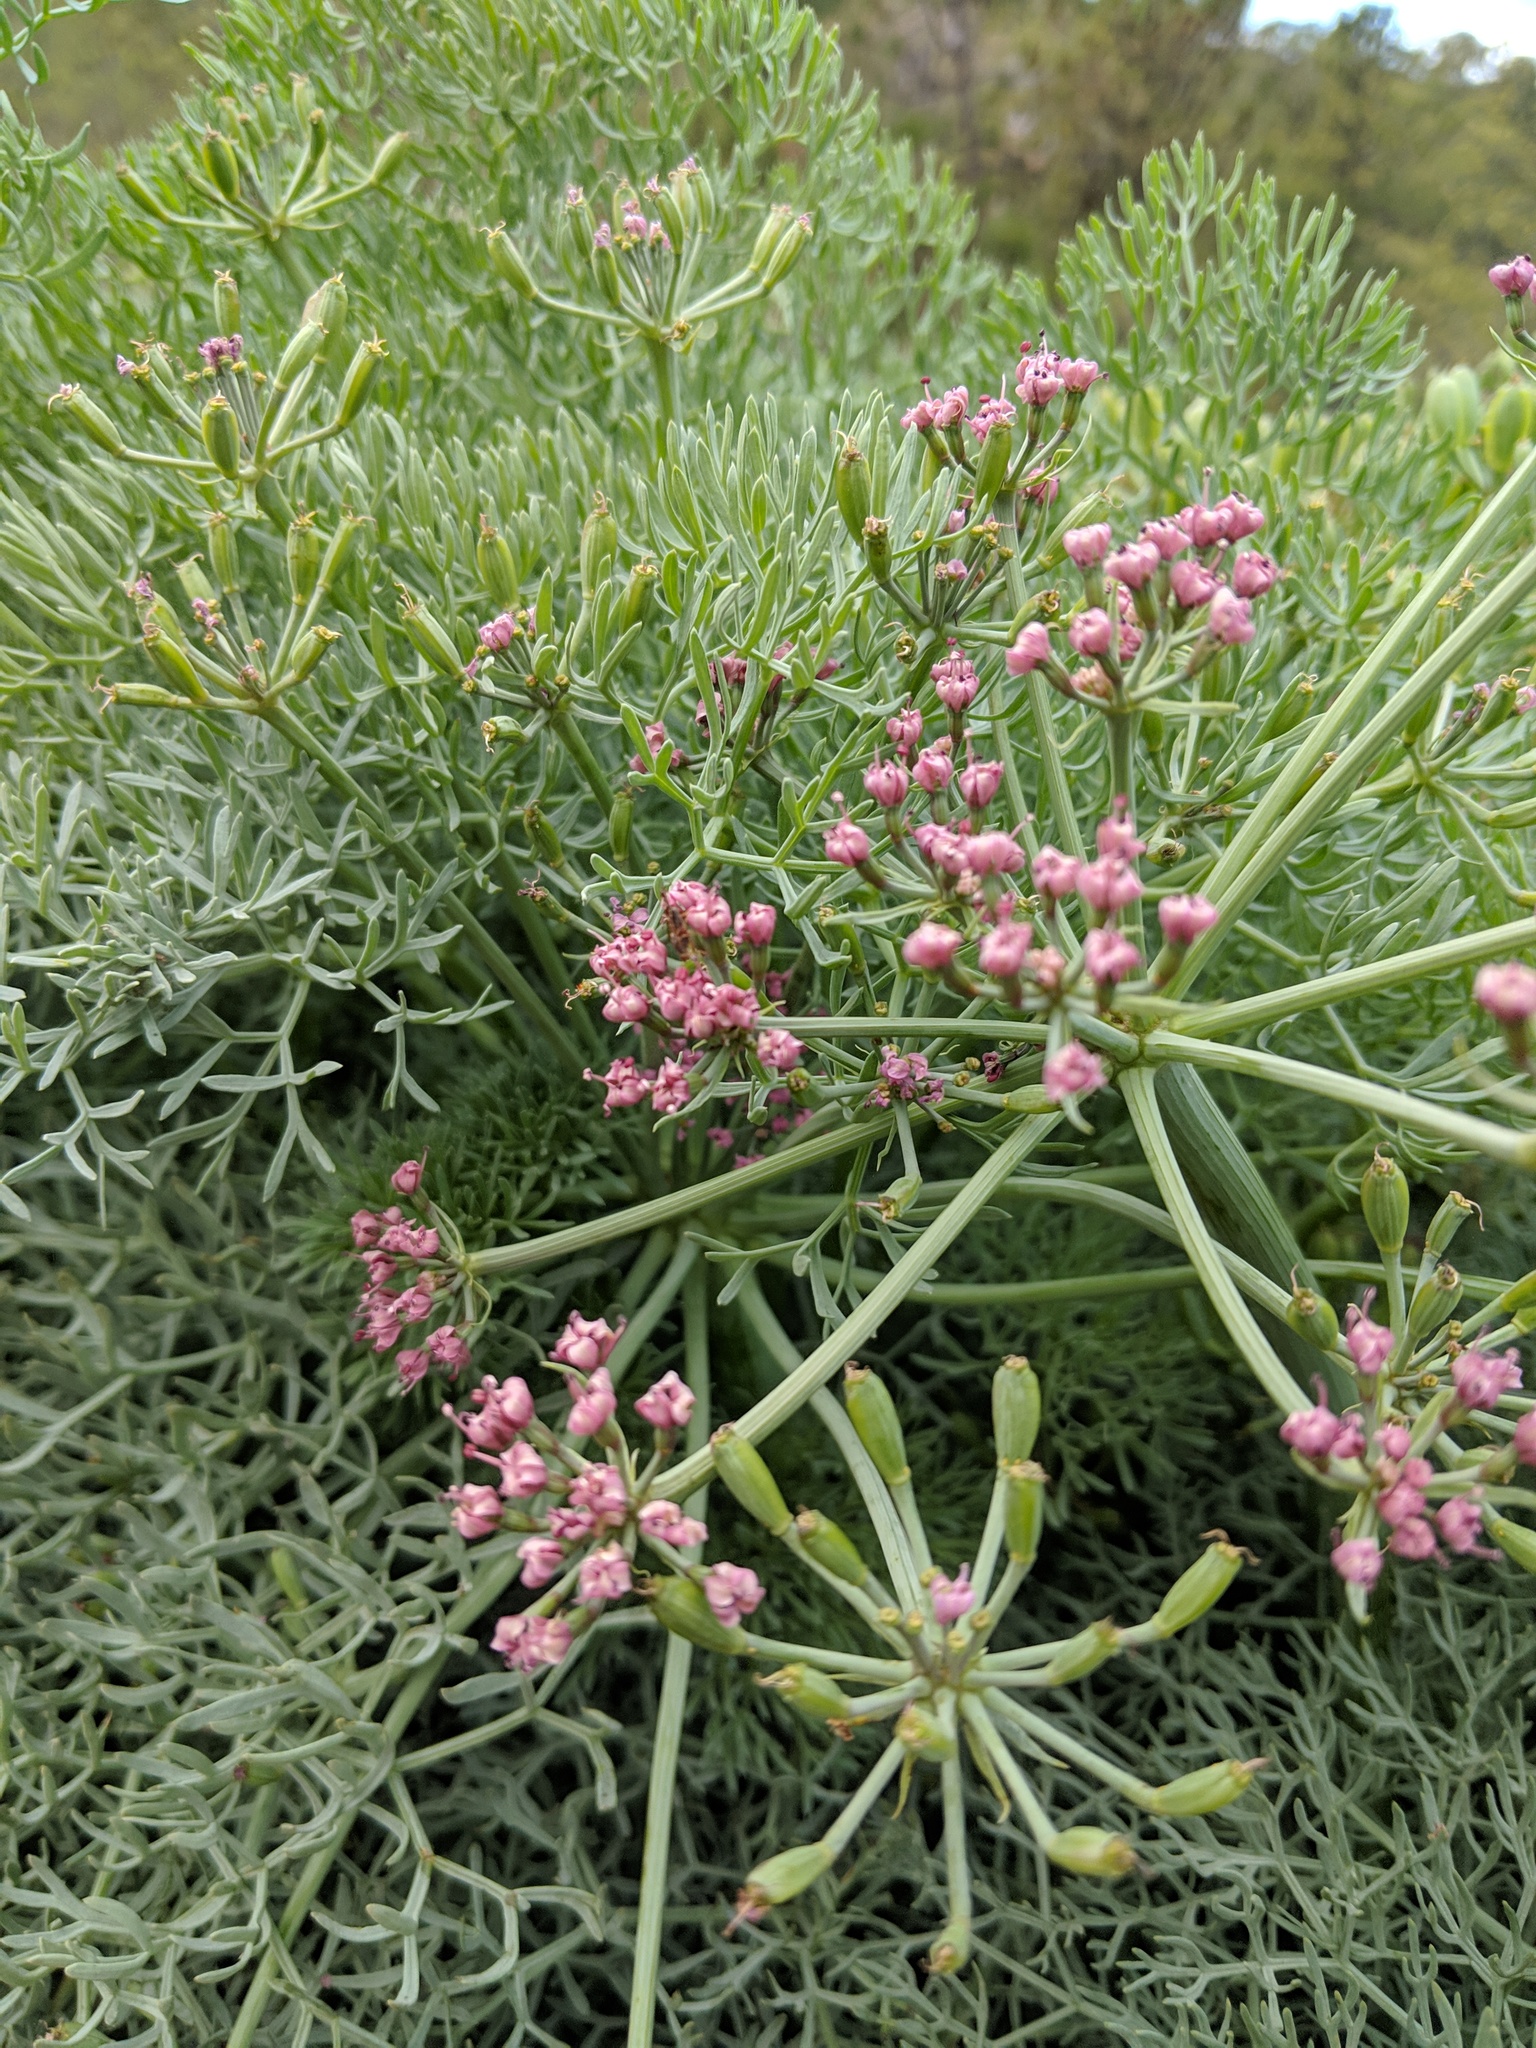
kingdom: Plantae
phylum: Tracheophyta
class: Magnoliopsida
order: Apiales
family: Apiaceae
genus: Lomatium
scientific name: Lomatium columbianum
